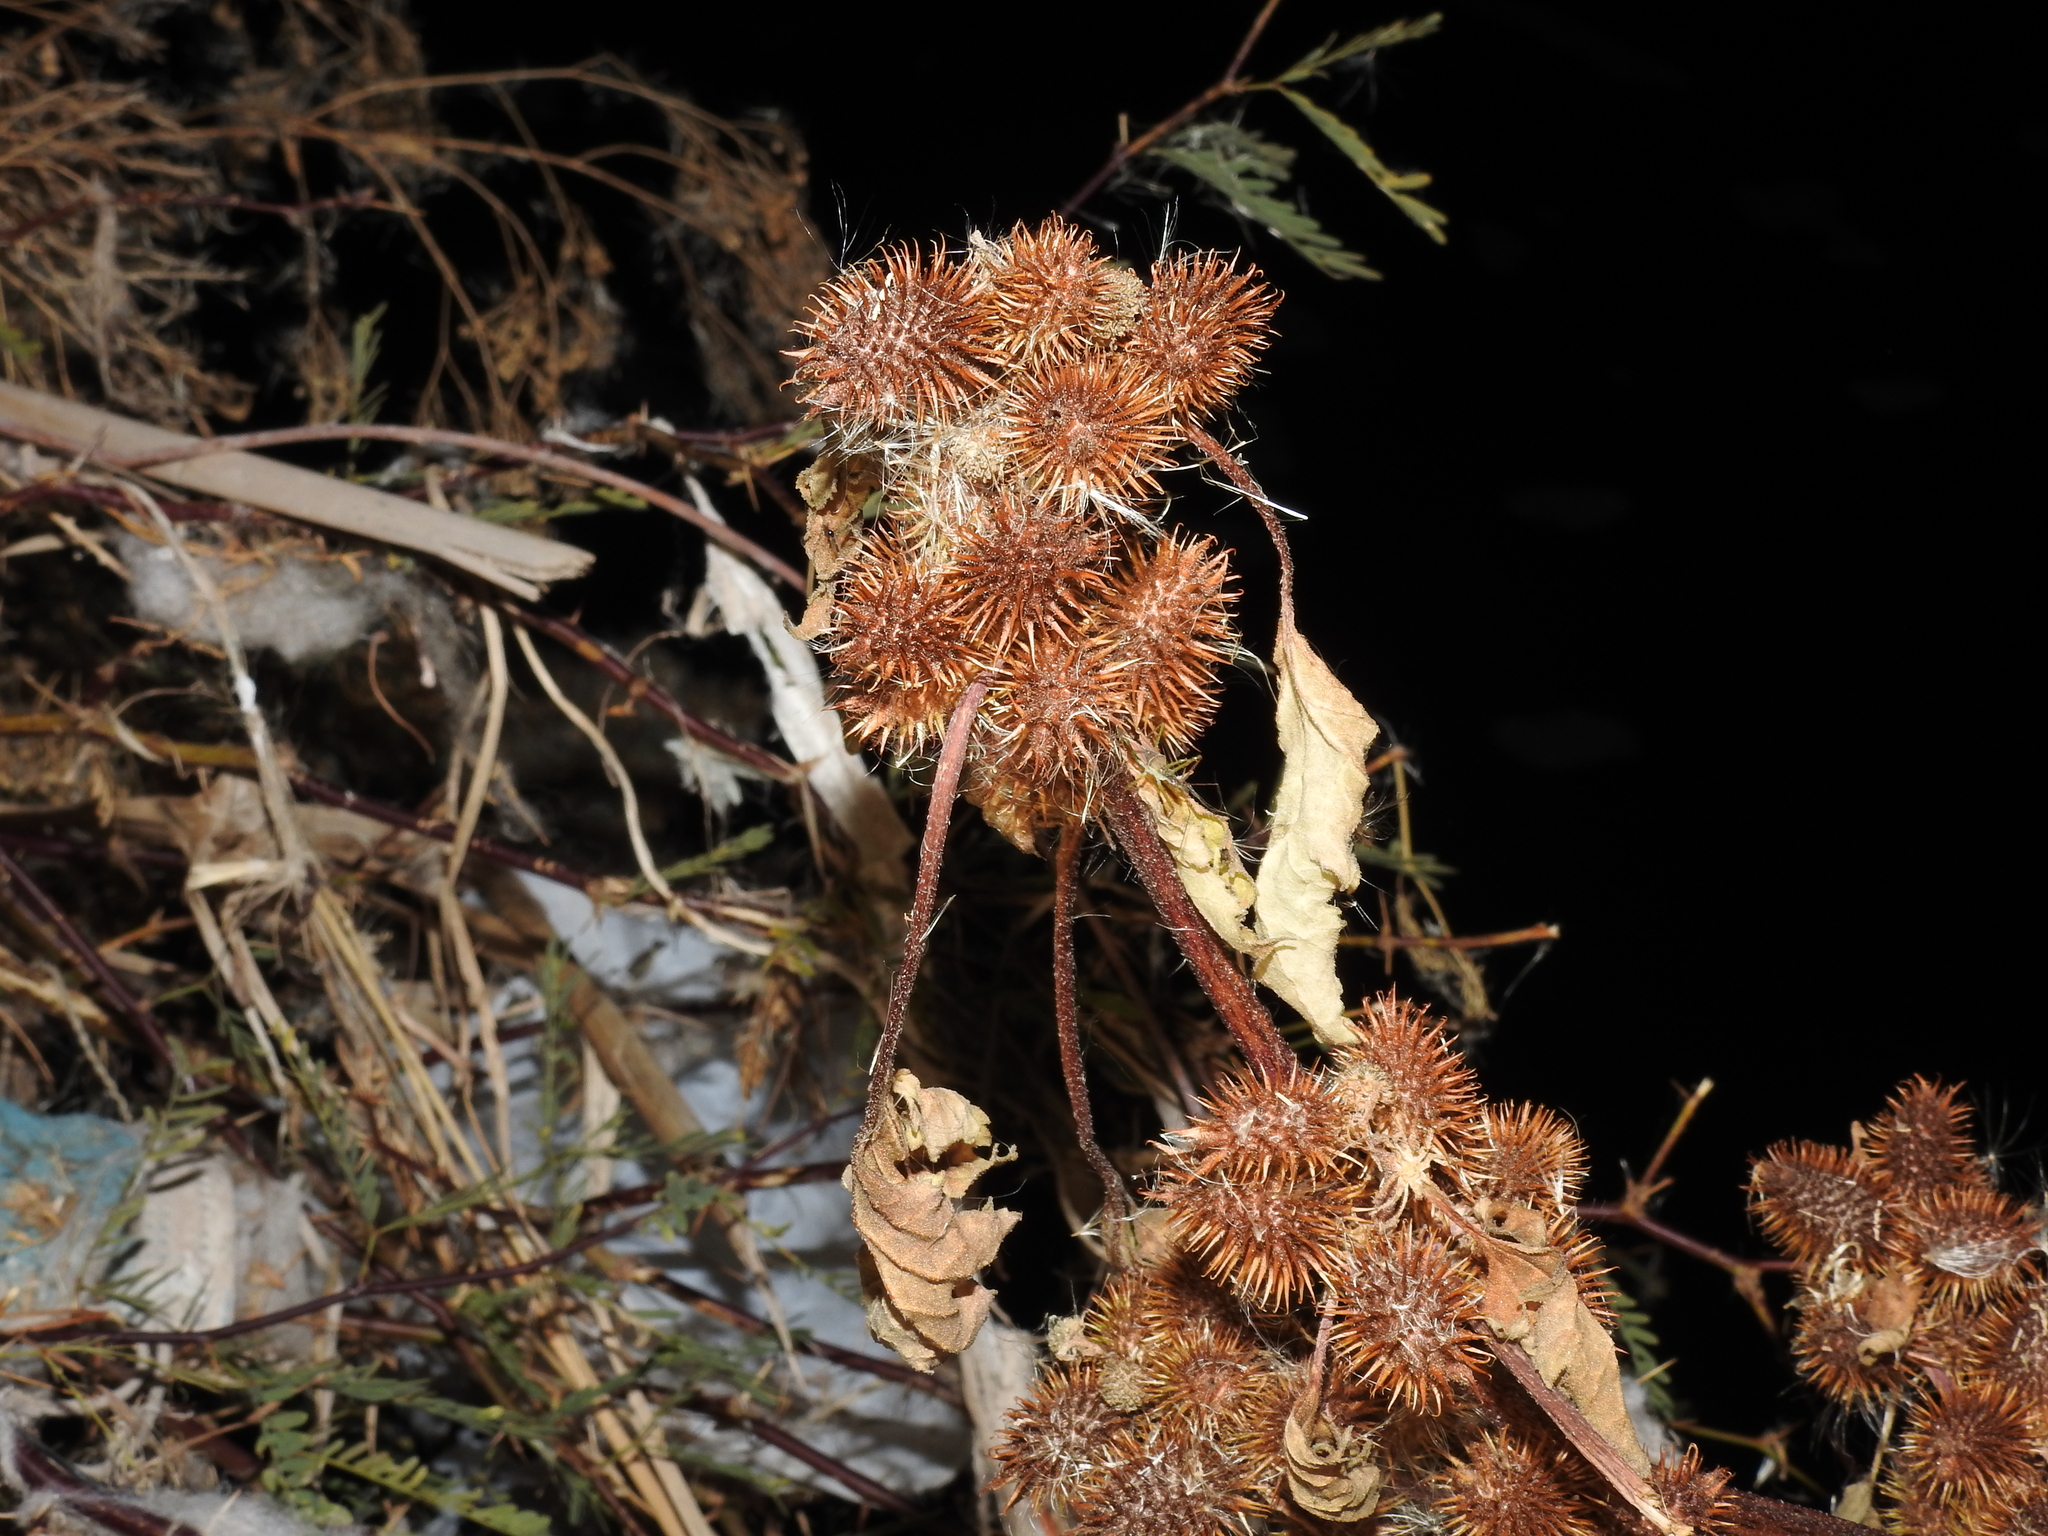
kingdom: Plantae
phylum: Tracheophyta
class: Magnoliopsida
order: Asterales
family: Asteraceae
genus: Xanthium
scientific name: Xanthium strumarium
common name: Rough cocklebur
